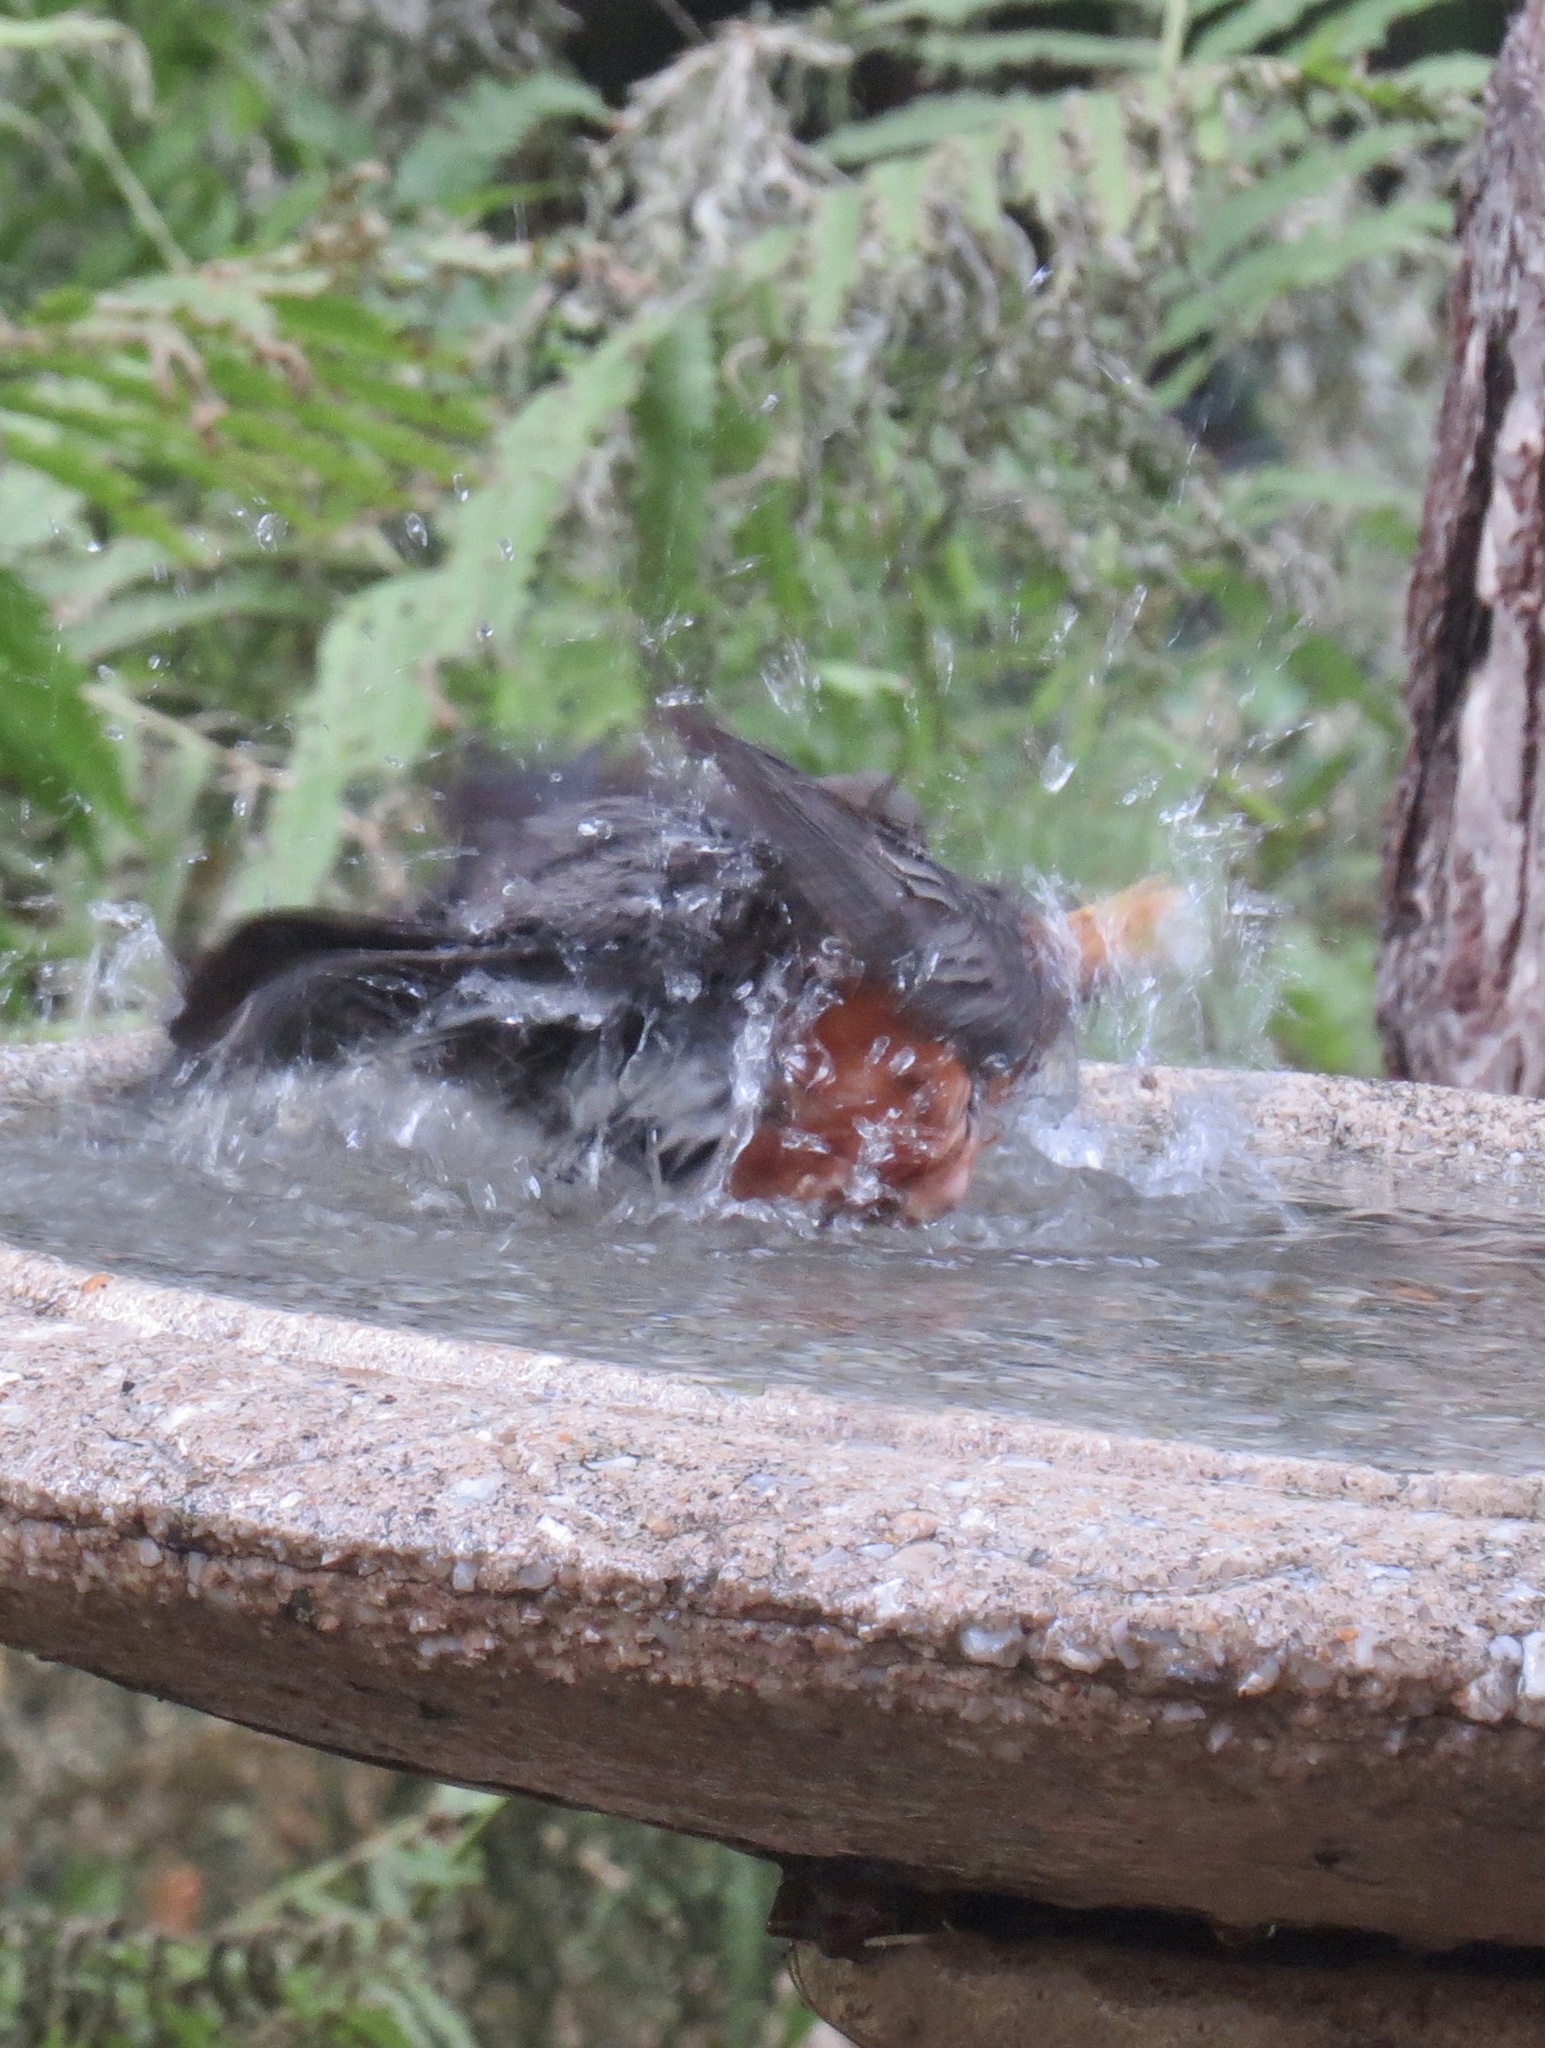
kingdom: Animalia
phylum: Chordata
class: Aves
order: Passeriformes
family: Turdidae
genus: Turdus
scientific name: Turdus migratorius
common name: American robin
